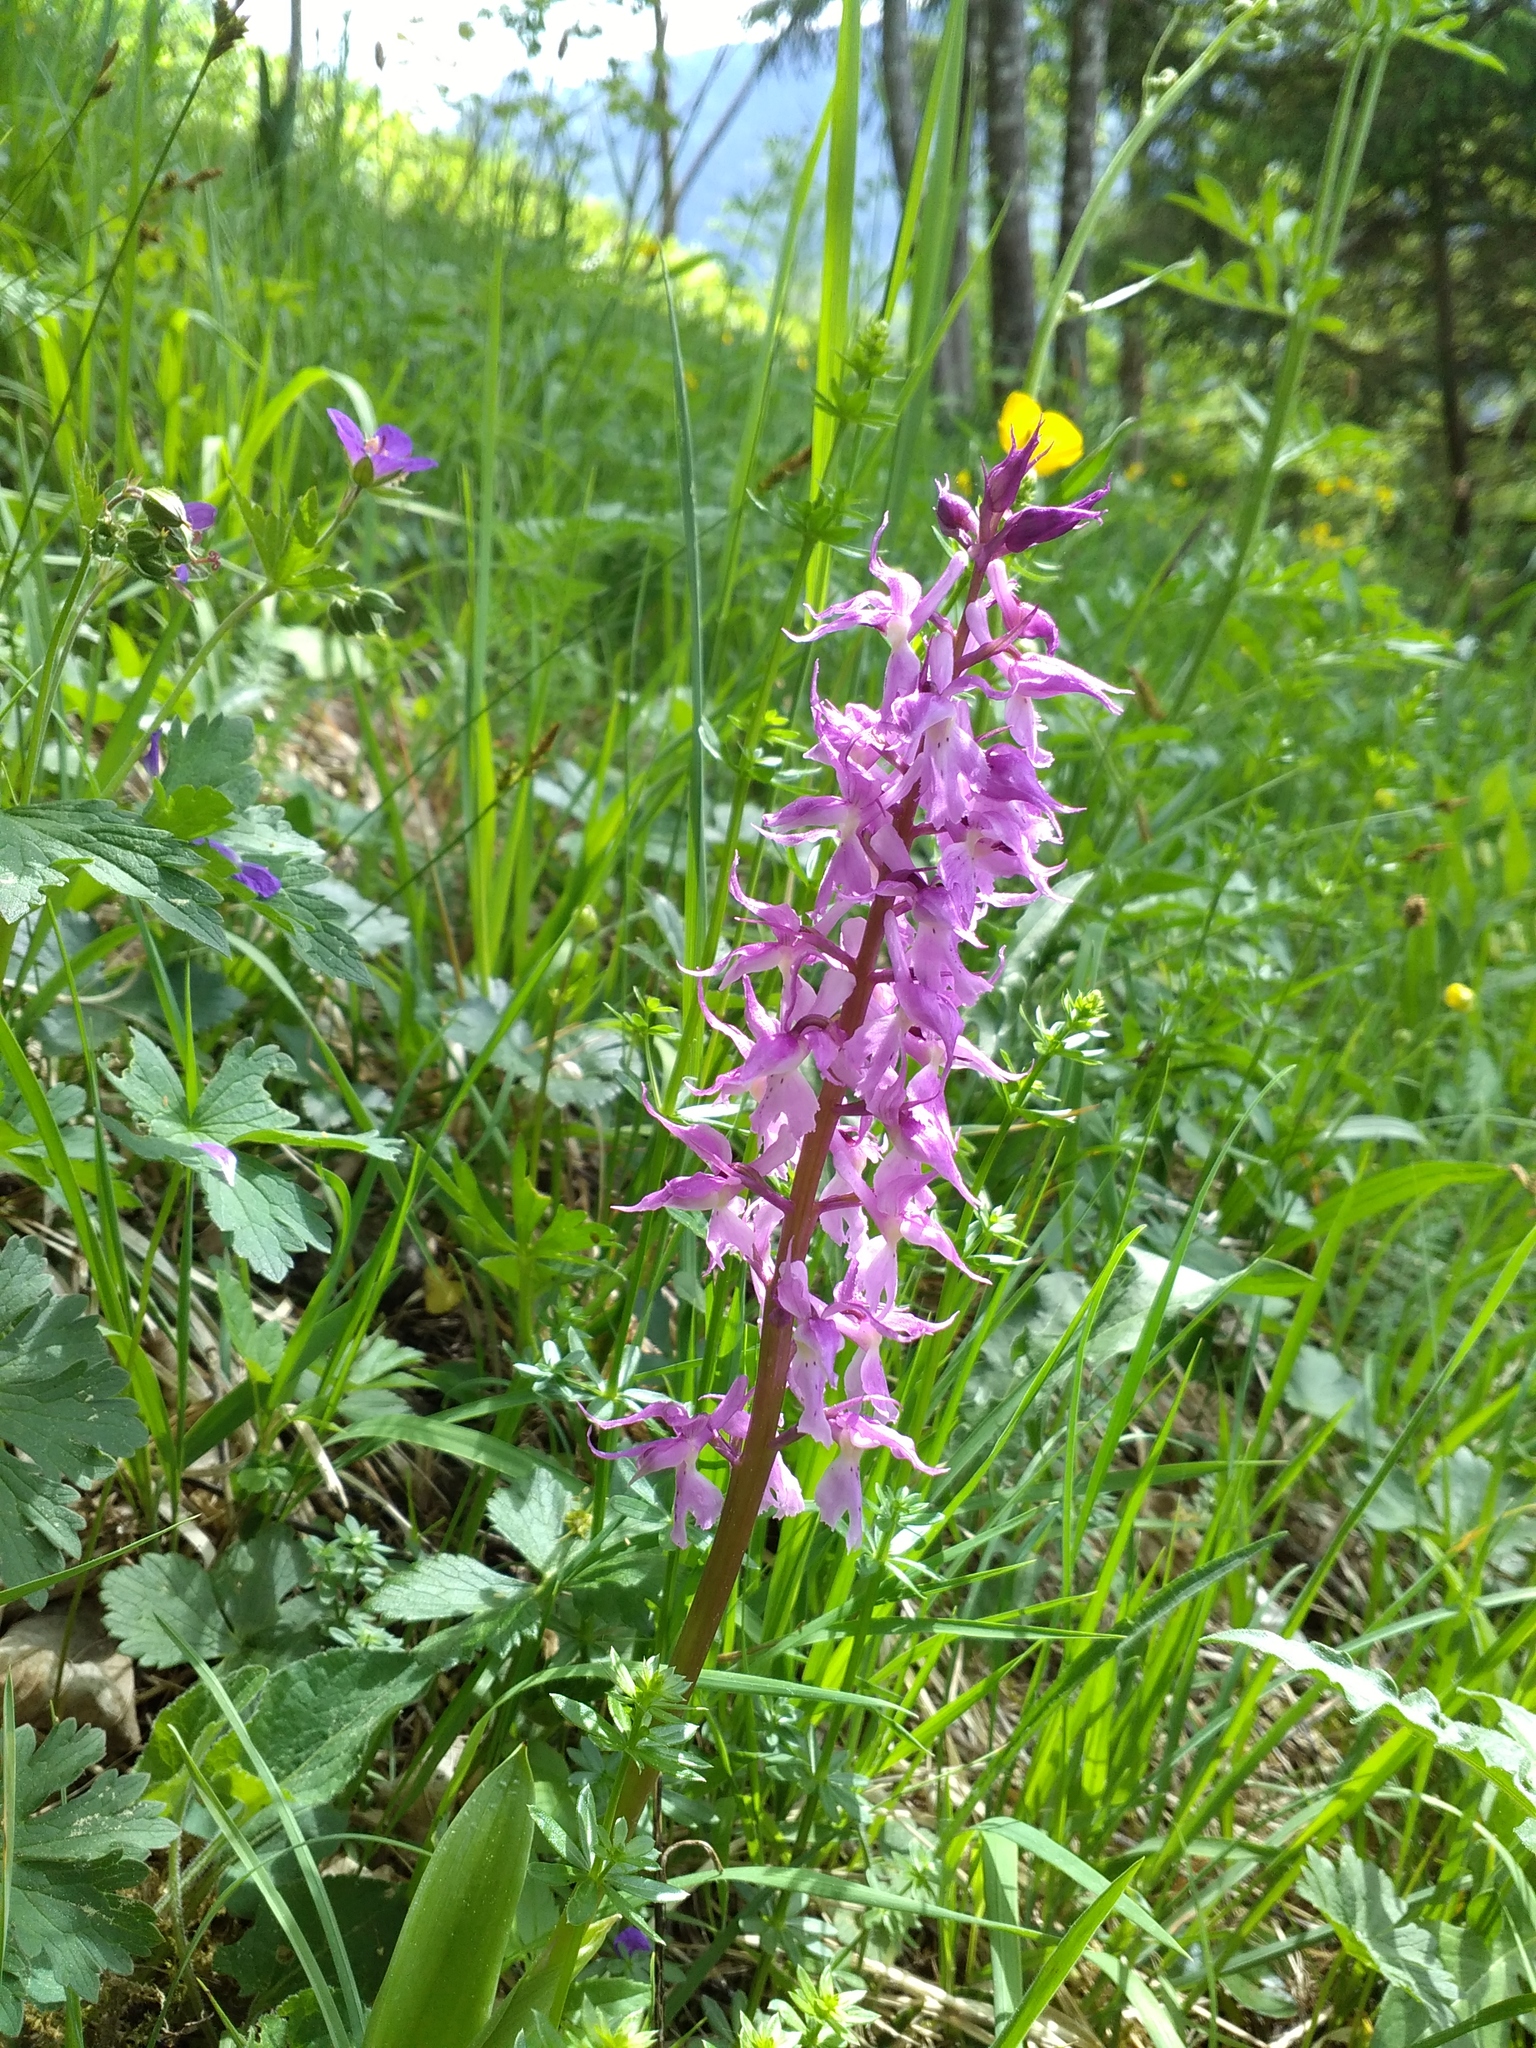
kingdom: Plantae
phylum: Tracheophyta
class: Liliopsida
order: Asparagales
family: Orchidaceae
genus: Orchis
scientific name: Orchis mascula
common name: Early-purple orchid
